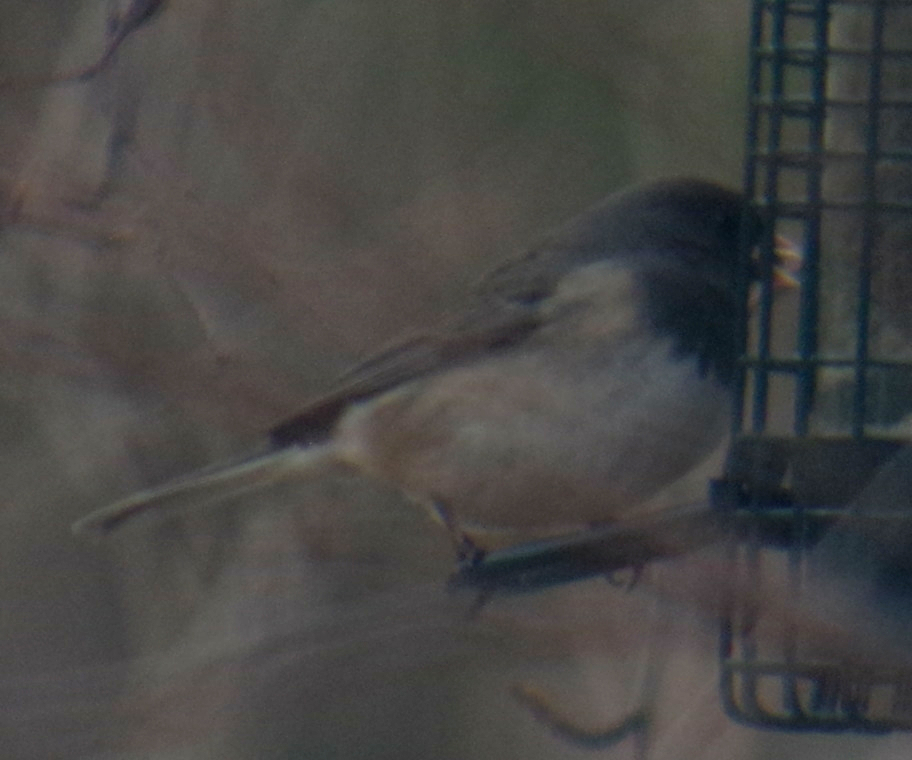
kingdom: Animalia
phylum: Chordata
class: Aves
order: Passeriformes
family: Passerellidae
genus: Junco
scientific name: Junco hyemalis
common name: Dark-eyed junco
